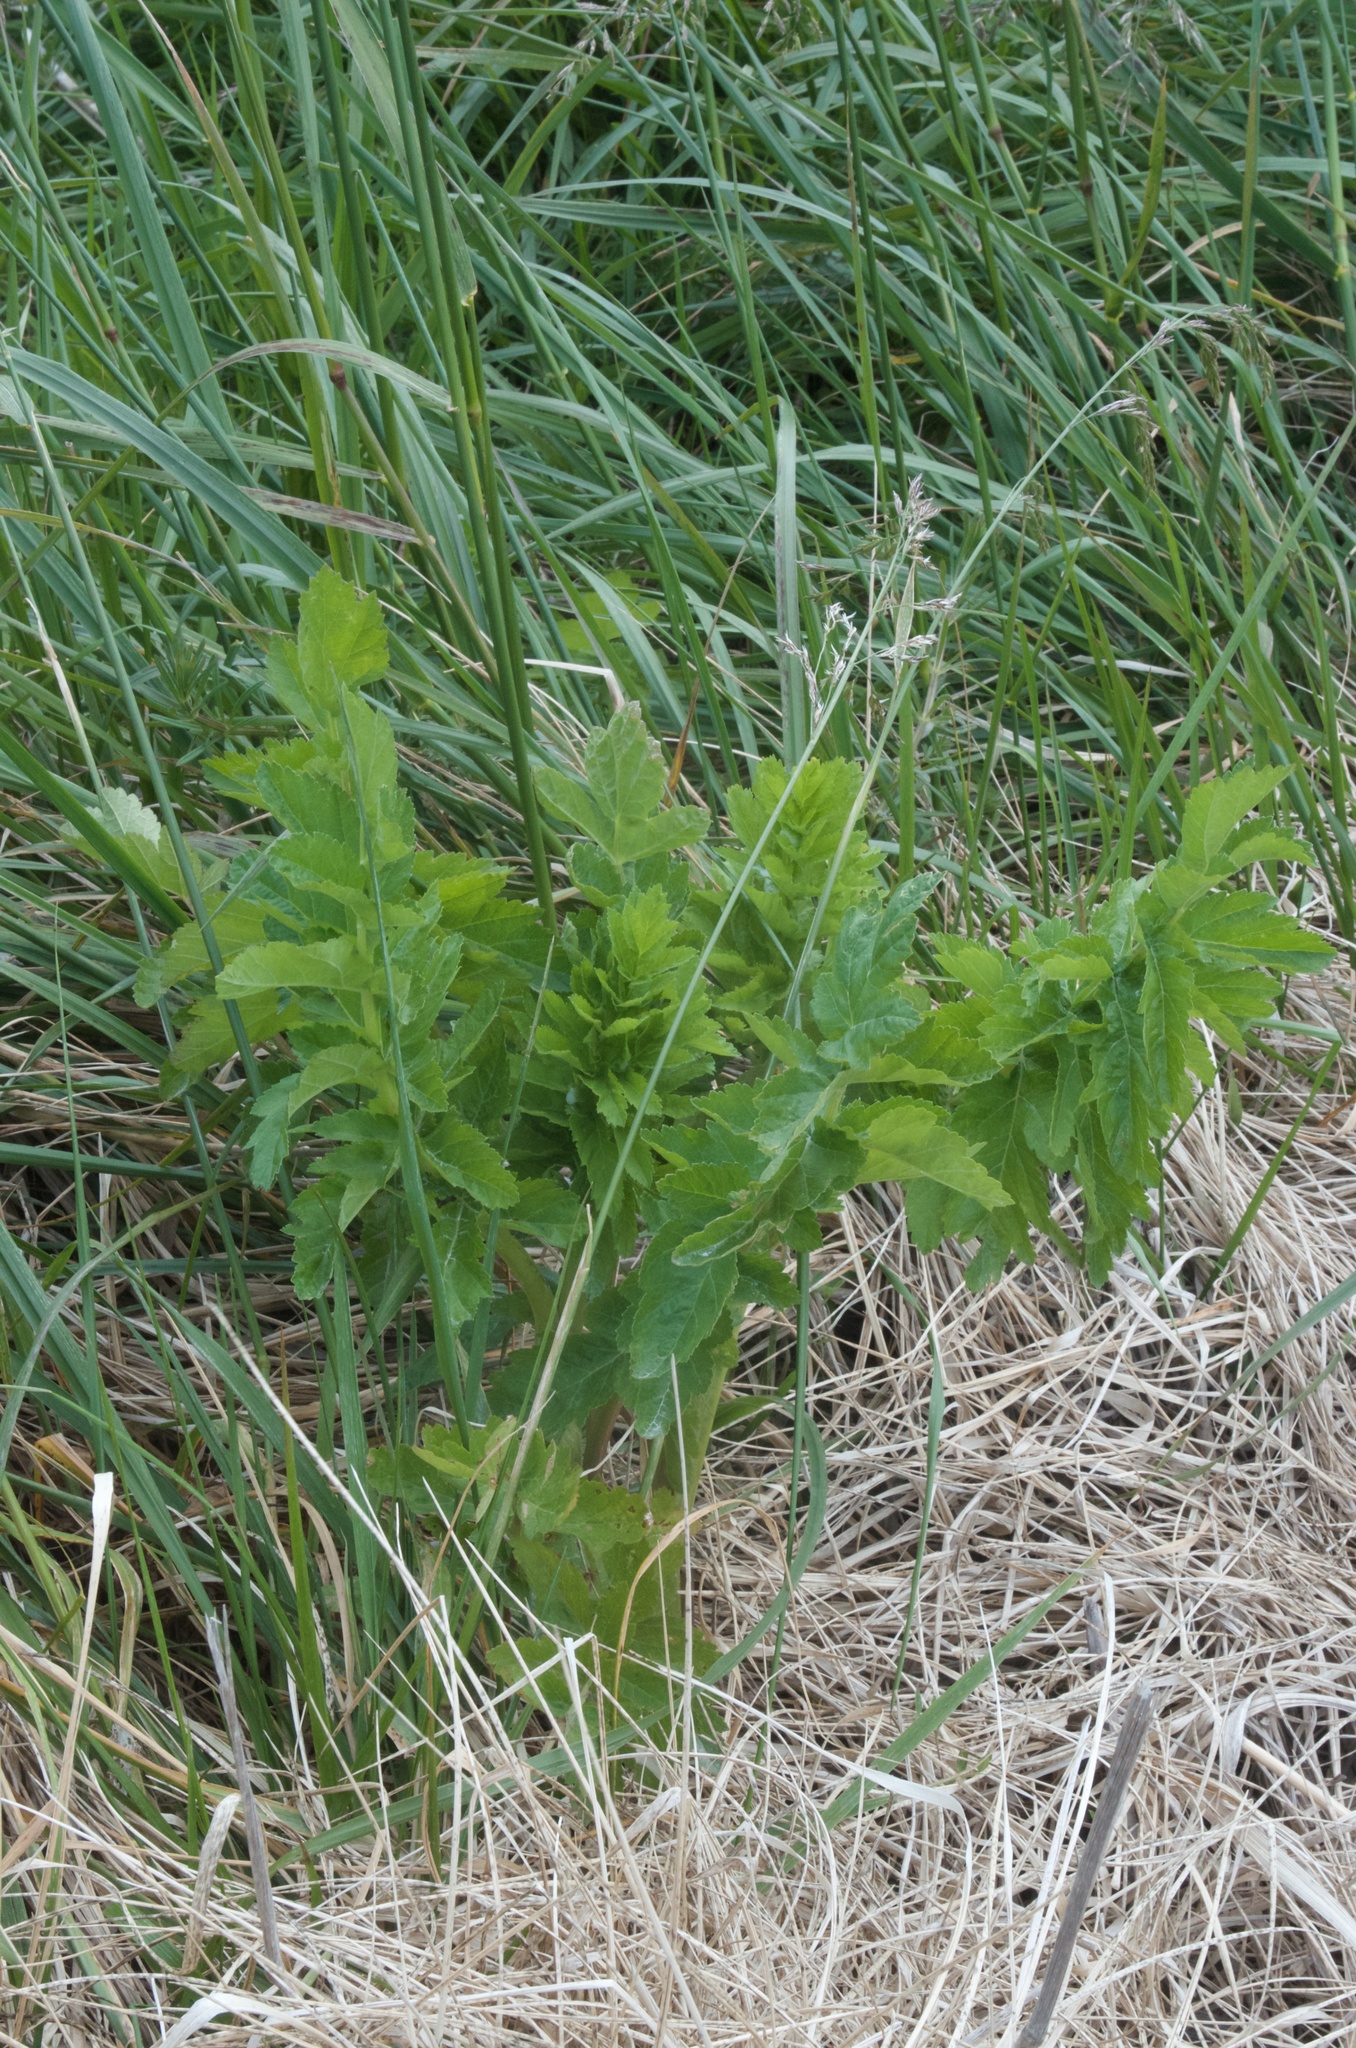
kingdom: Plantae
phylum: Tracheophyta
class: Magnoliopsida
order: Apiales
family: Apiaceae
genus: Pastinaca
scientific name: Pastinaca sativa
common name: Wild parsnip
